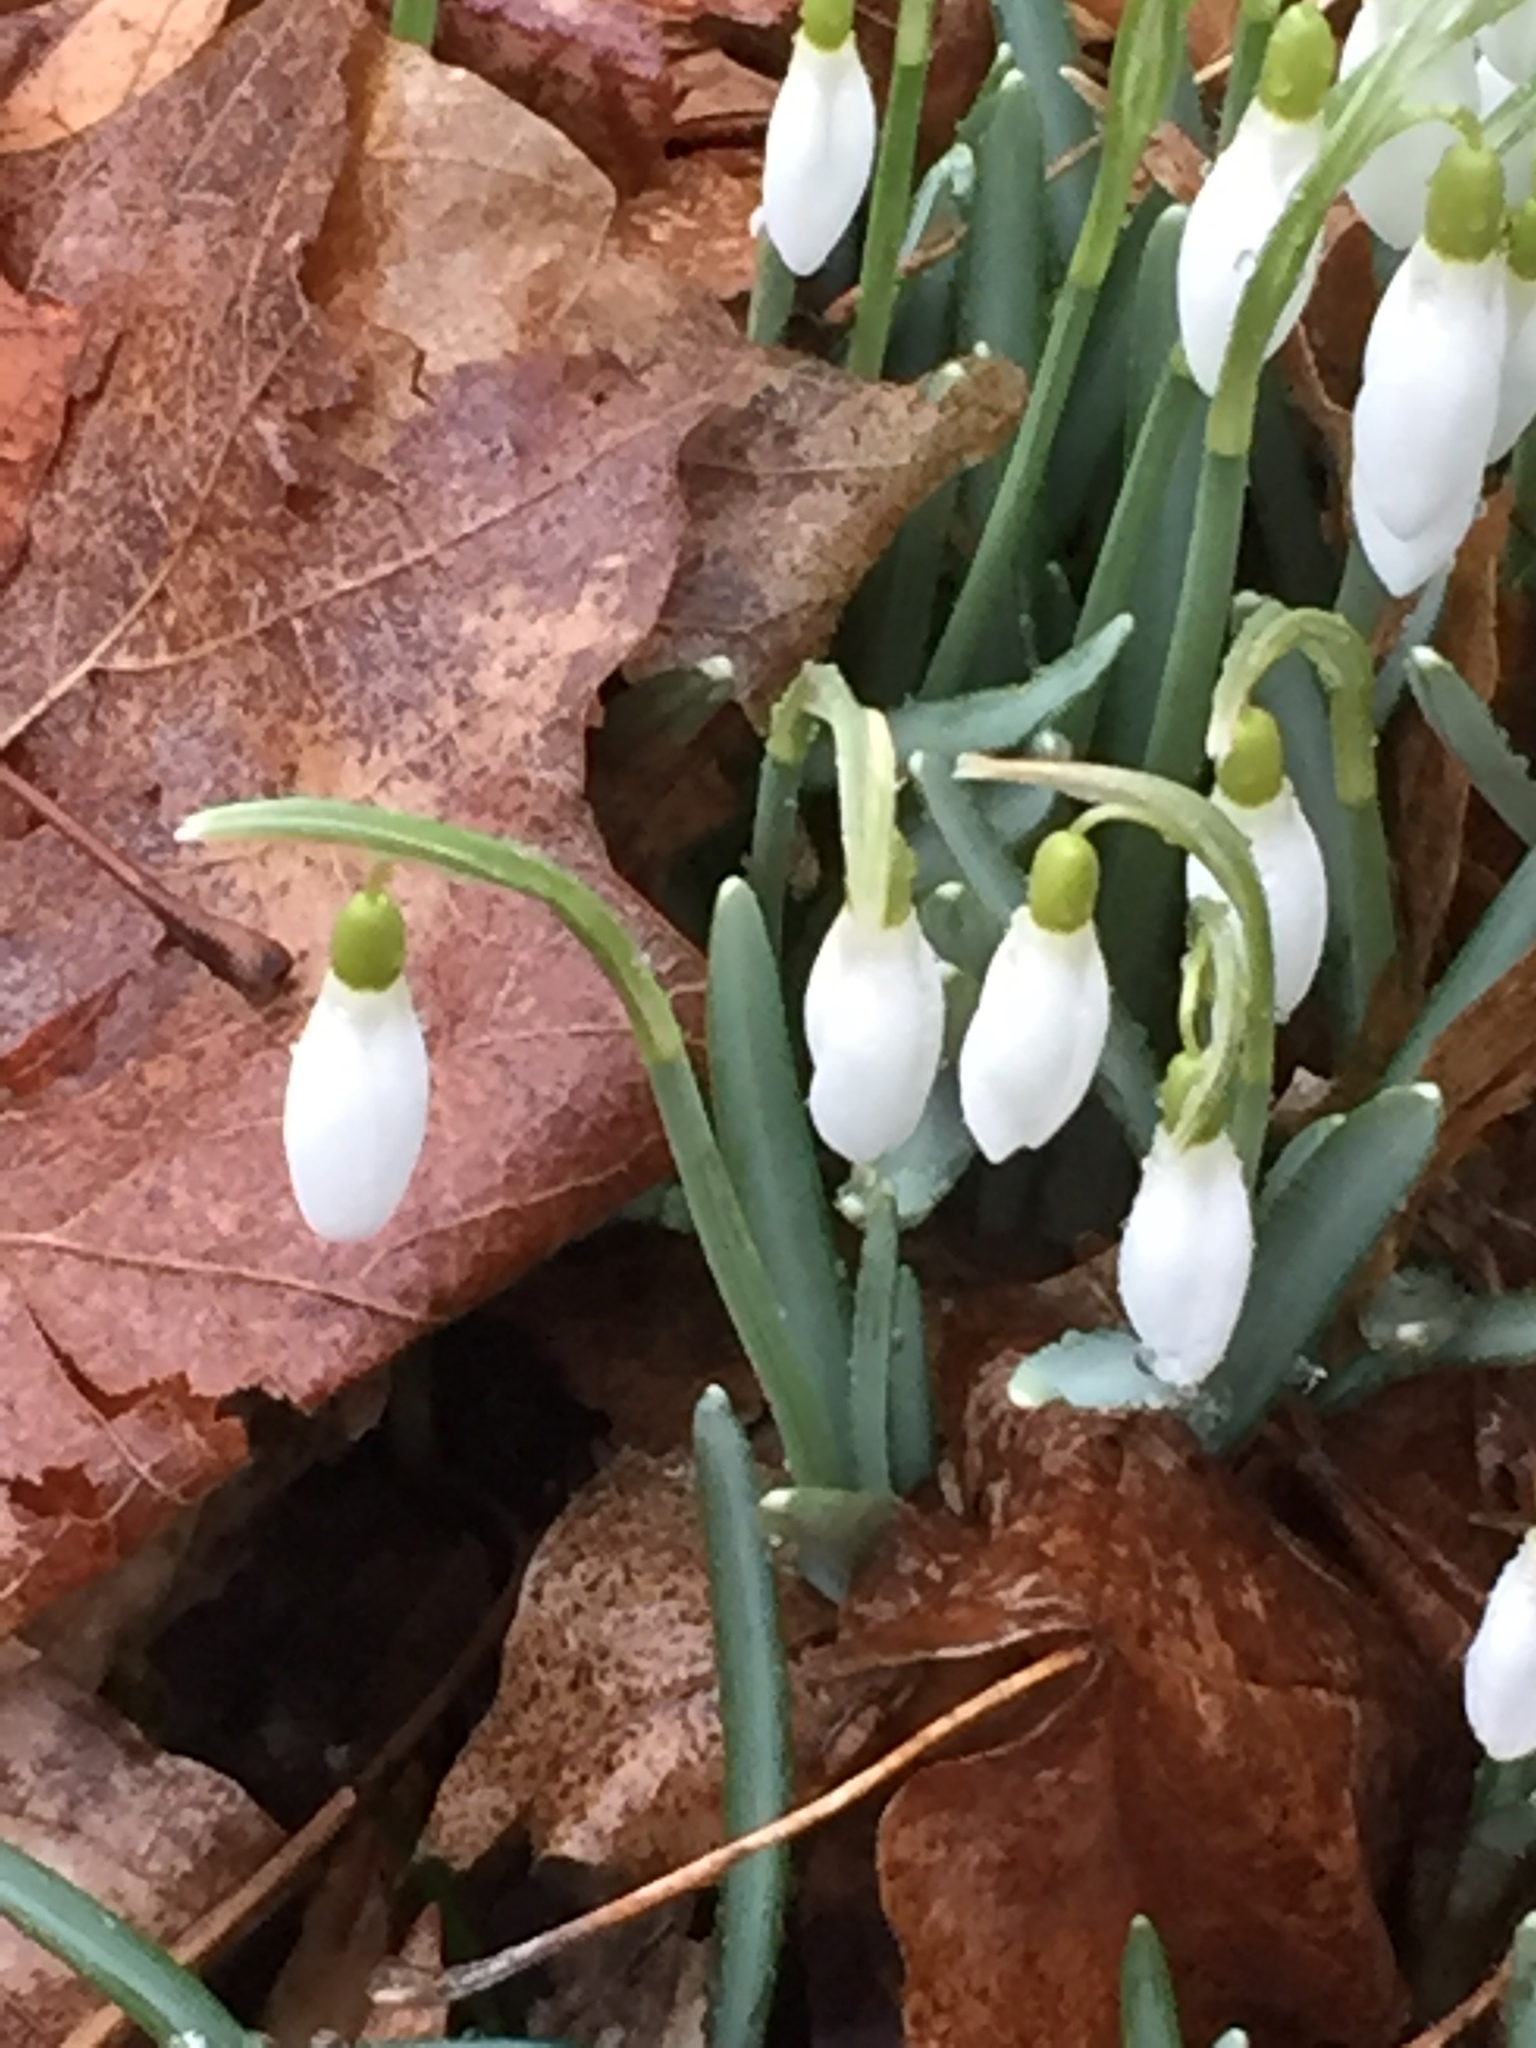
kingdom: Plantae
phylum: Tracheophyta
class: Liliopsida
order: Asparagales
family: Amaryllidaceae
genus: Galanthus
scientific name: Galanthus nivalis
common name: Snowdrop
